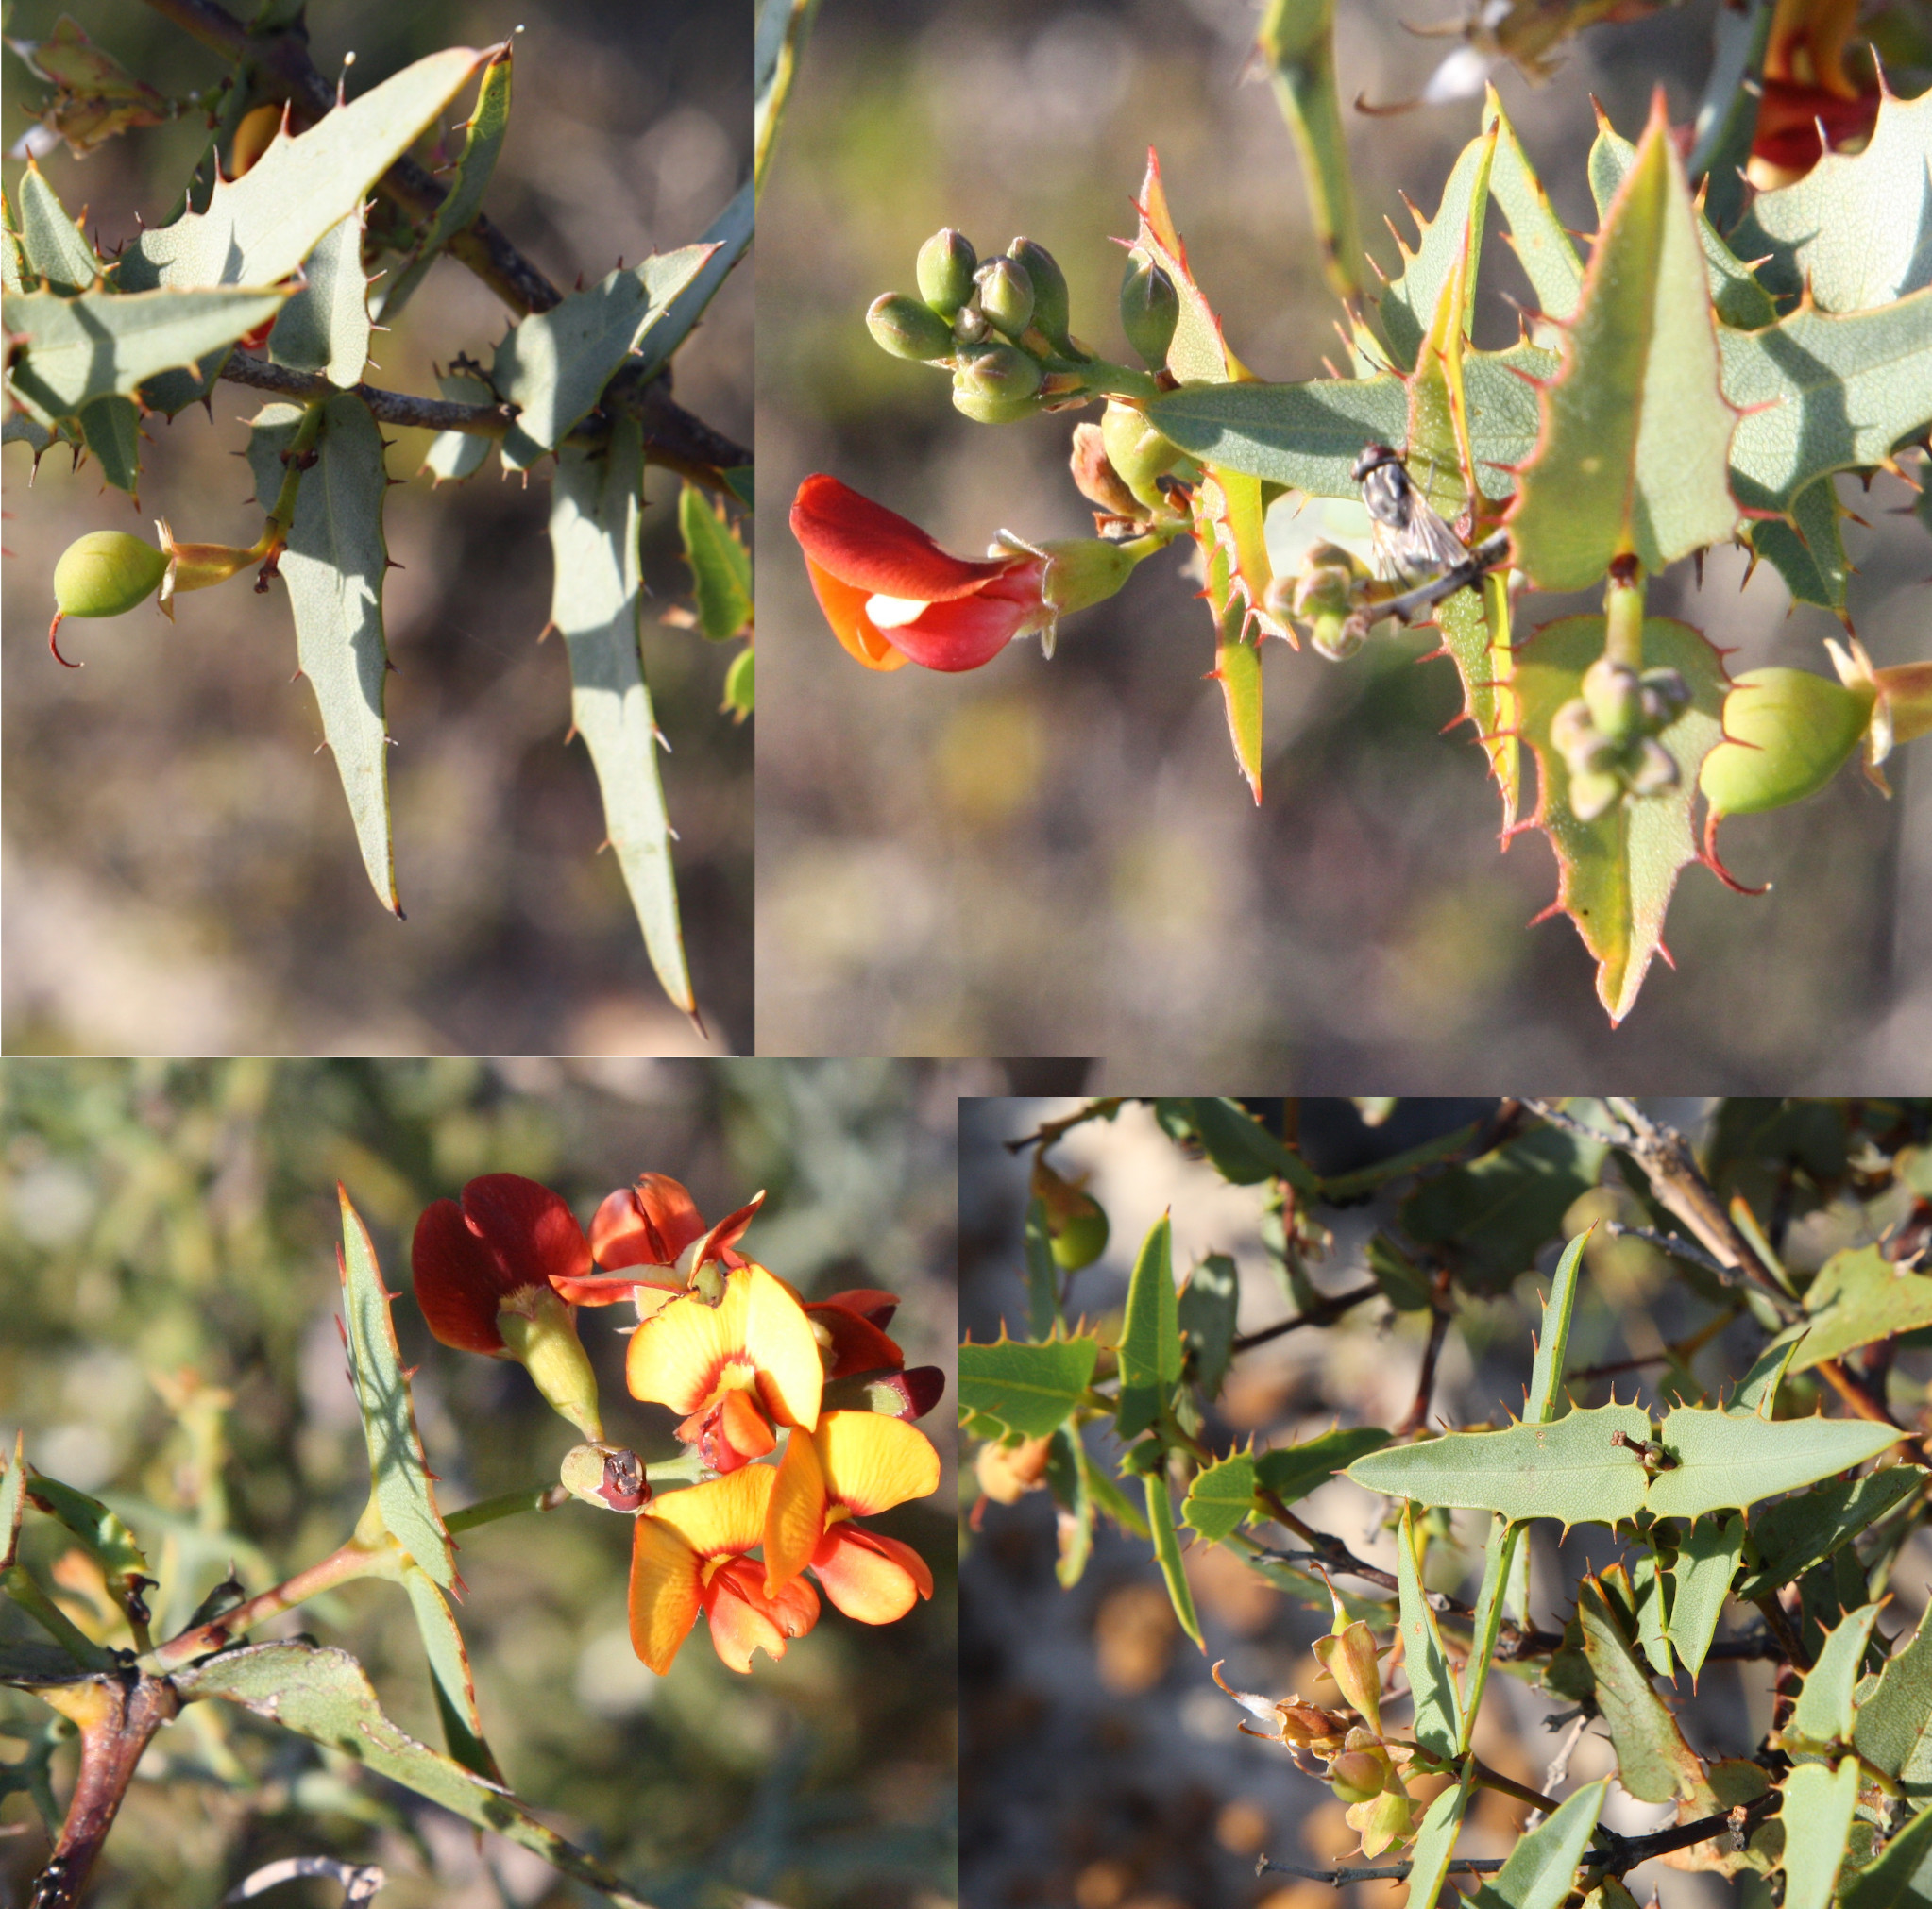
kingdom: Plantae
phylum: Tracheophyta
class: Magnoliopsida
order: Fabales
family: Fabaceae
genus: Gastrolobium
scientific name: Gastrolobium spinosum
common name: Prickly poison
